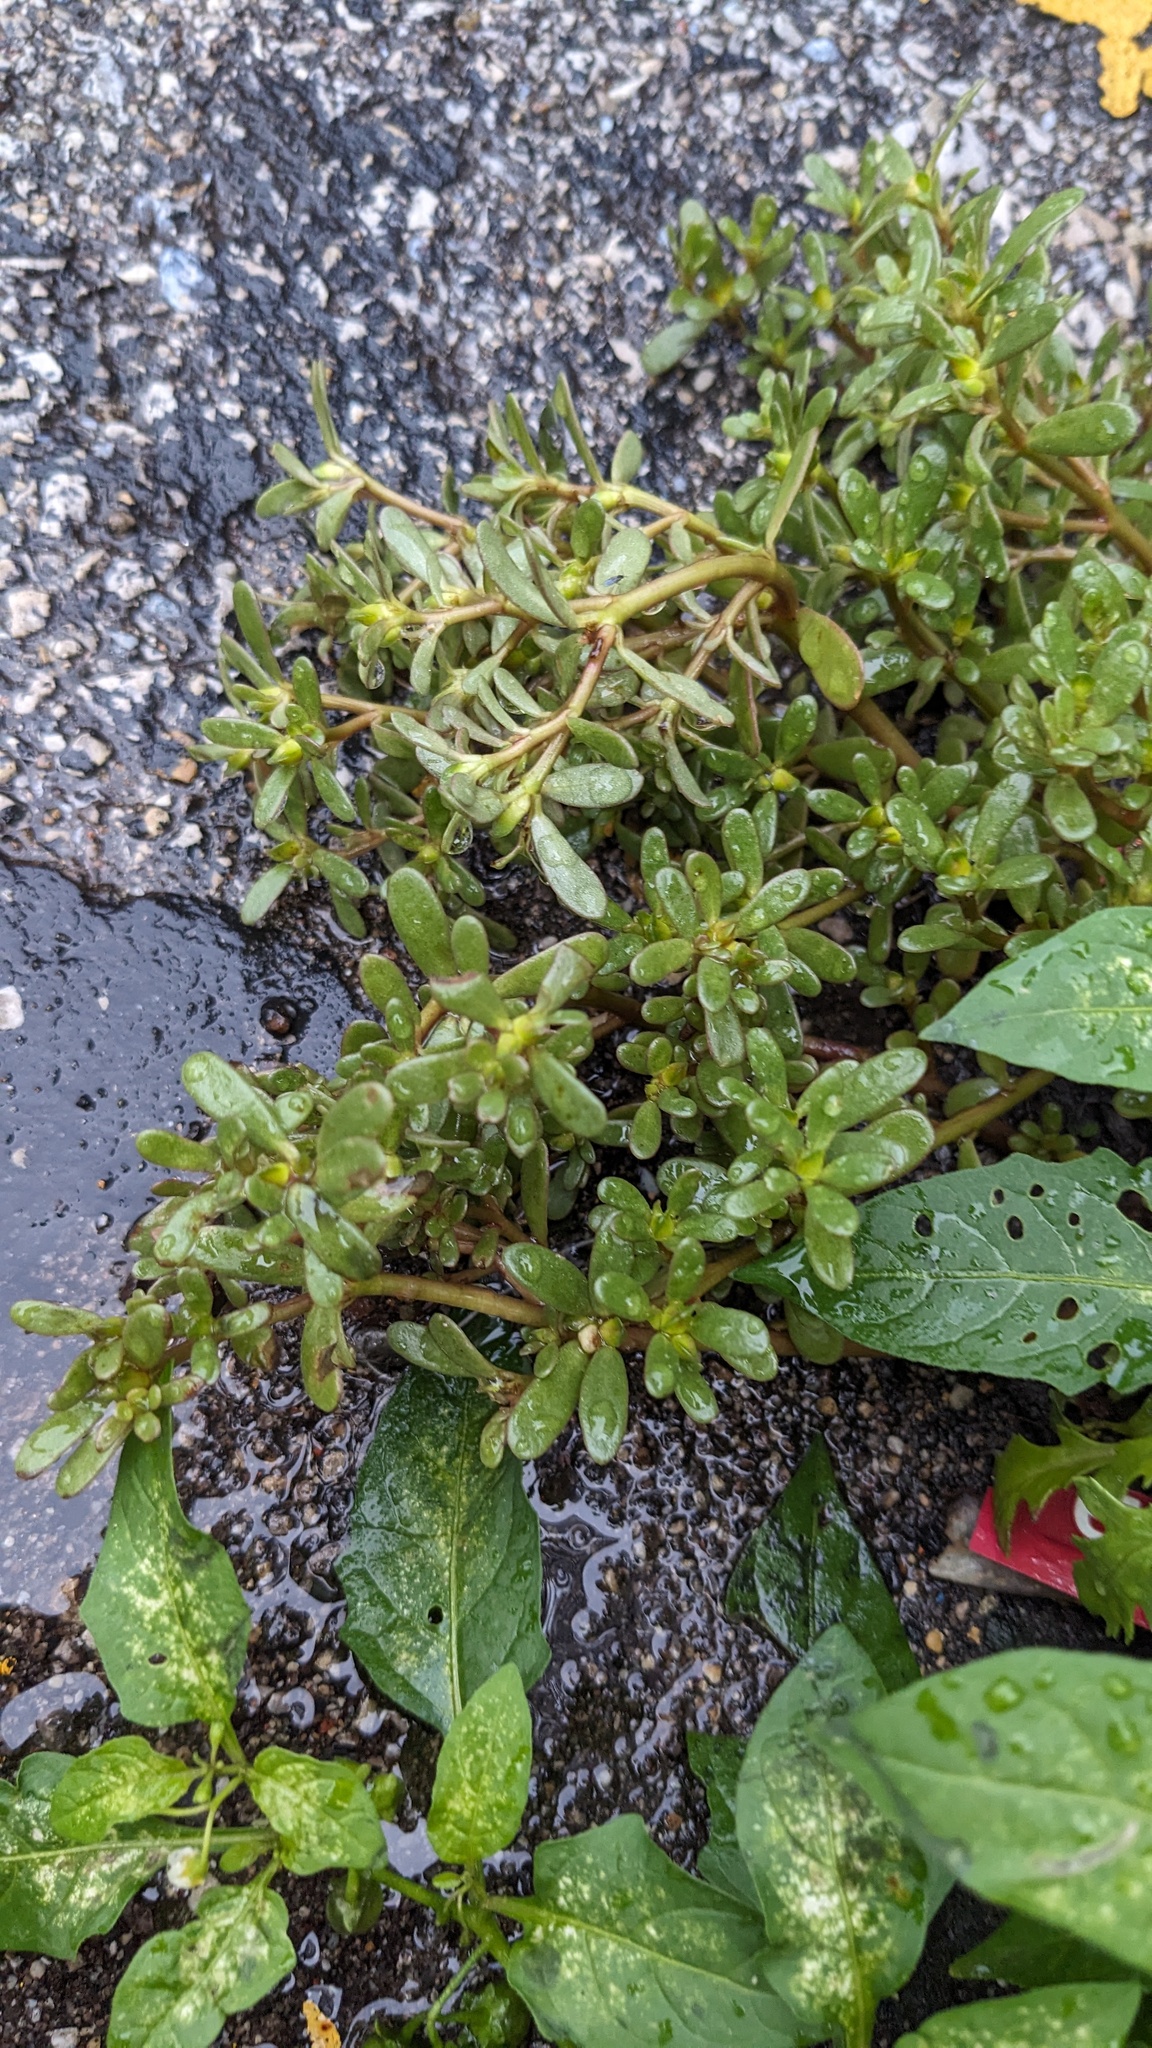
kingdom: Plantae
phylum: Tracheophyta
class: Magnoliopsida
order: Caryophyllales
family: Portulacaceae
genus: Portulaca
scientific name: Portulaca oleracea
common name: Common purslane
